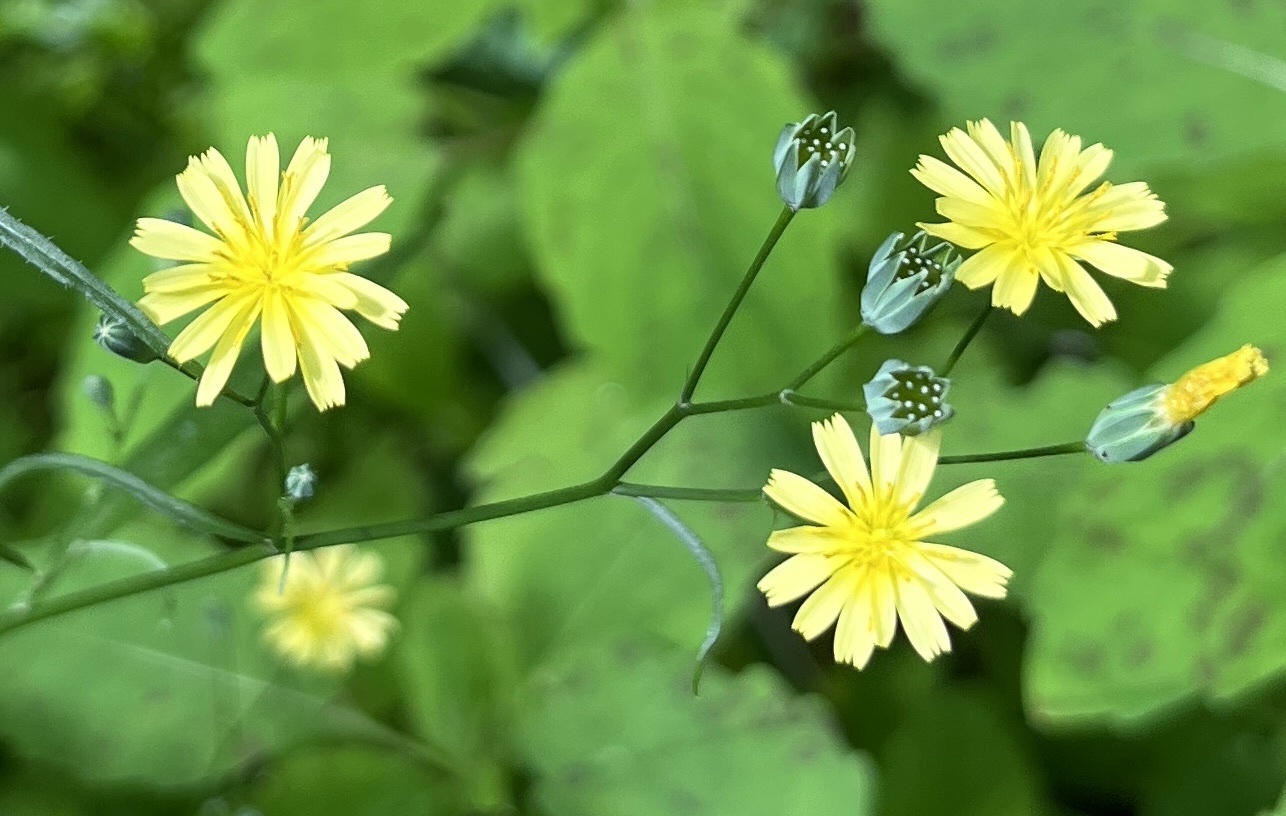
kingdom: Plantae
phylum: Tracheophyta
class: Magnoliopsida
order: Asterales
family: Asteraceae
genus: Lapsana
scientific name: Lapsana communis
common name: Nipplewort
